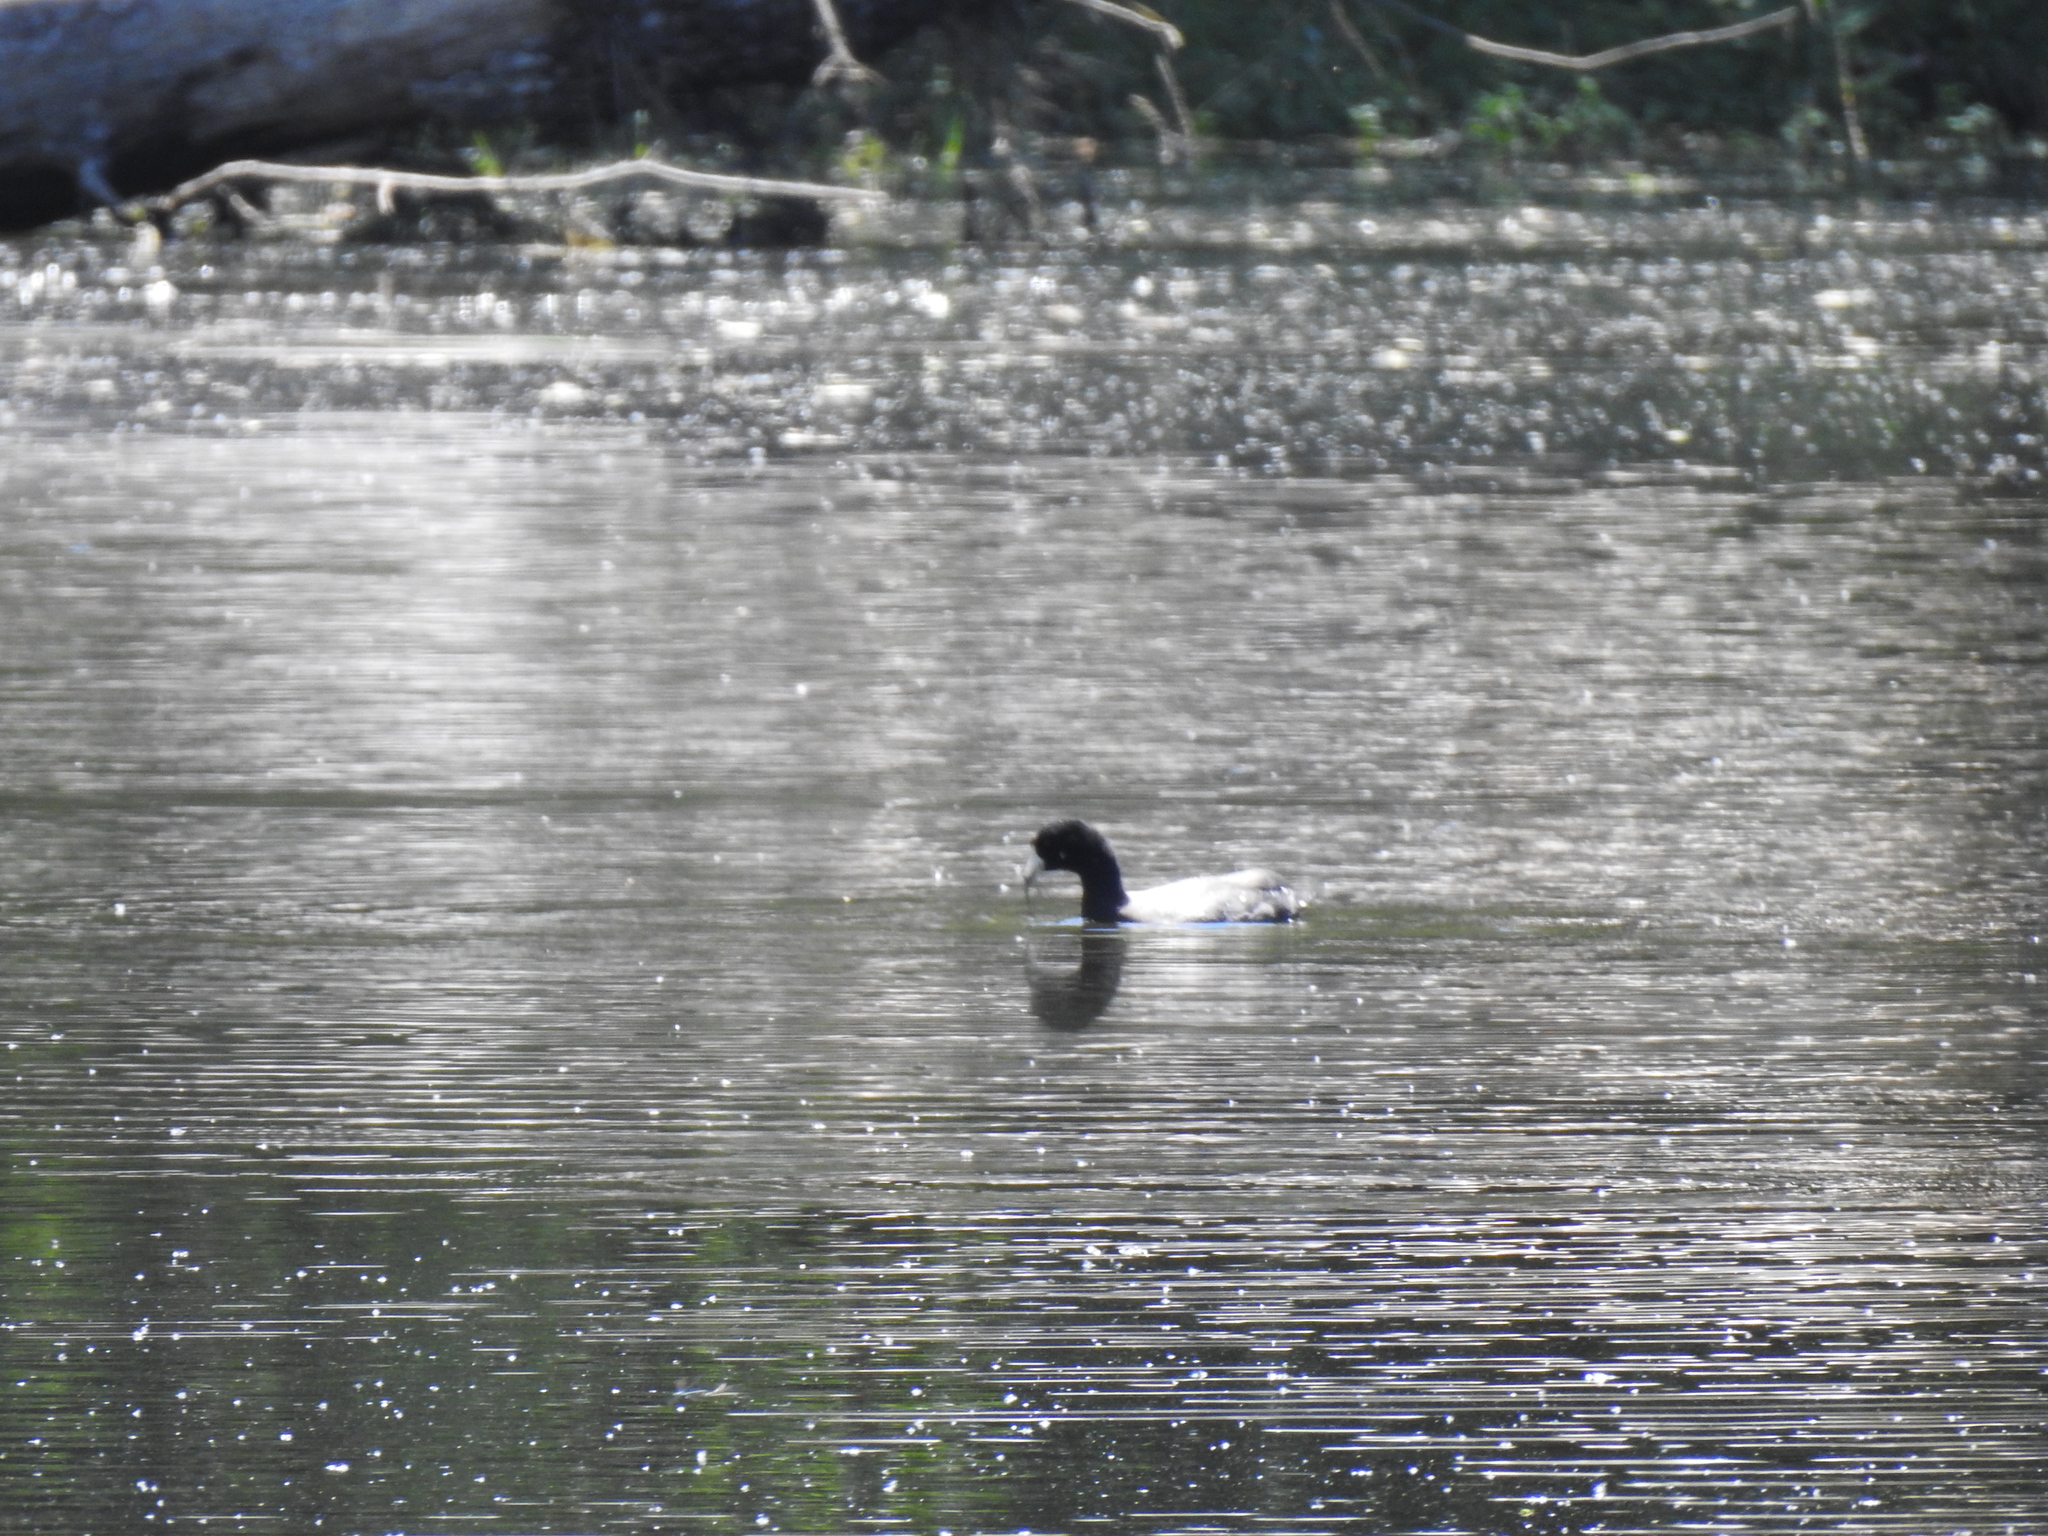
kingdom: Animalia
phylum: Chordata
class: Aves
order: Gruiformes
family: Rallidae
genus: Fulica
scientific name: Fulica americana
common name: American coot
